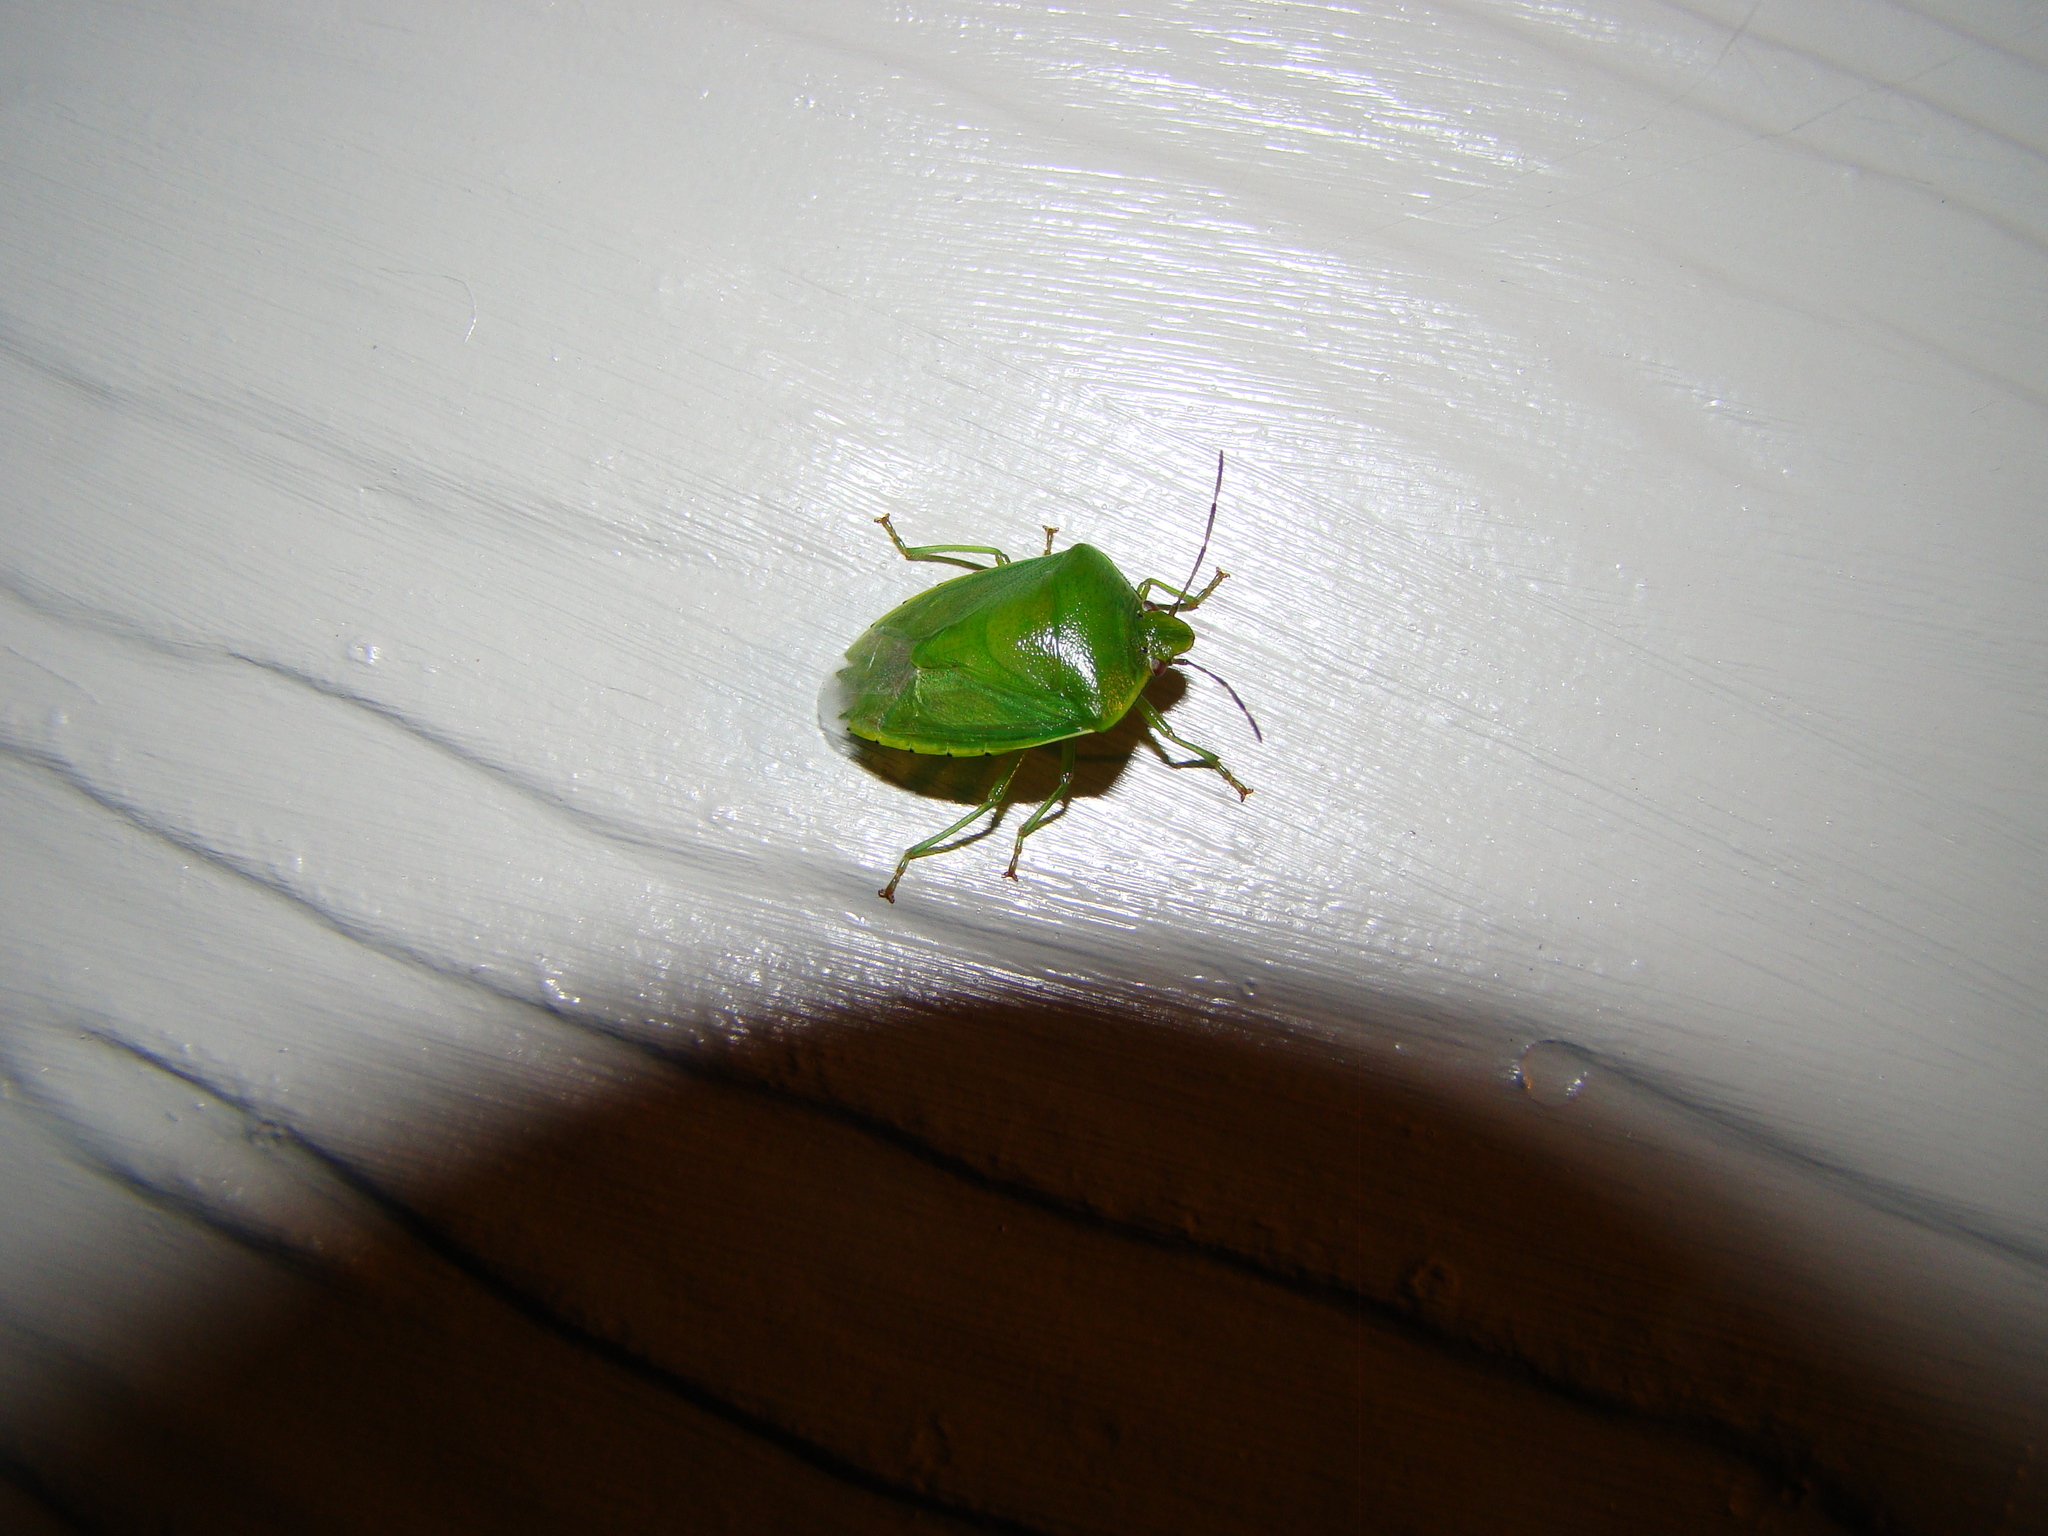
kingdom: Animalia
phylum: Arthropoda
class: Insecta
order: Hemiptera
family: Pentatomidae
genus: Glaucias
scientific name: Glaucias amyota
